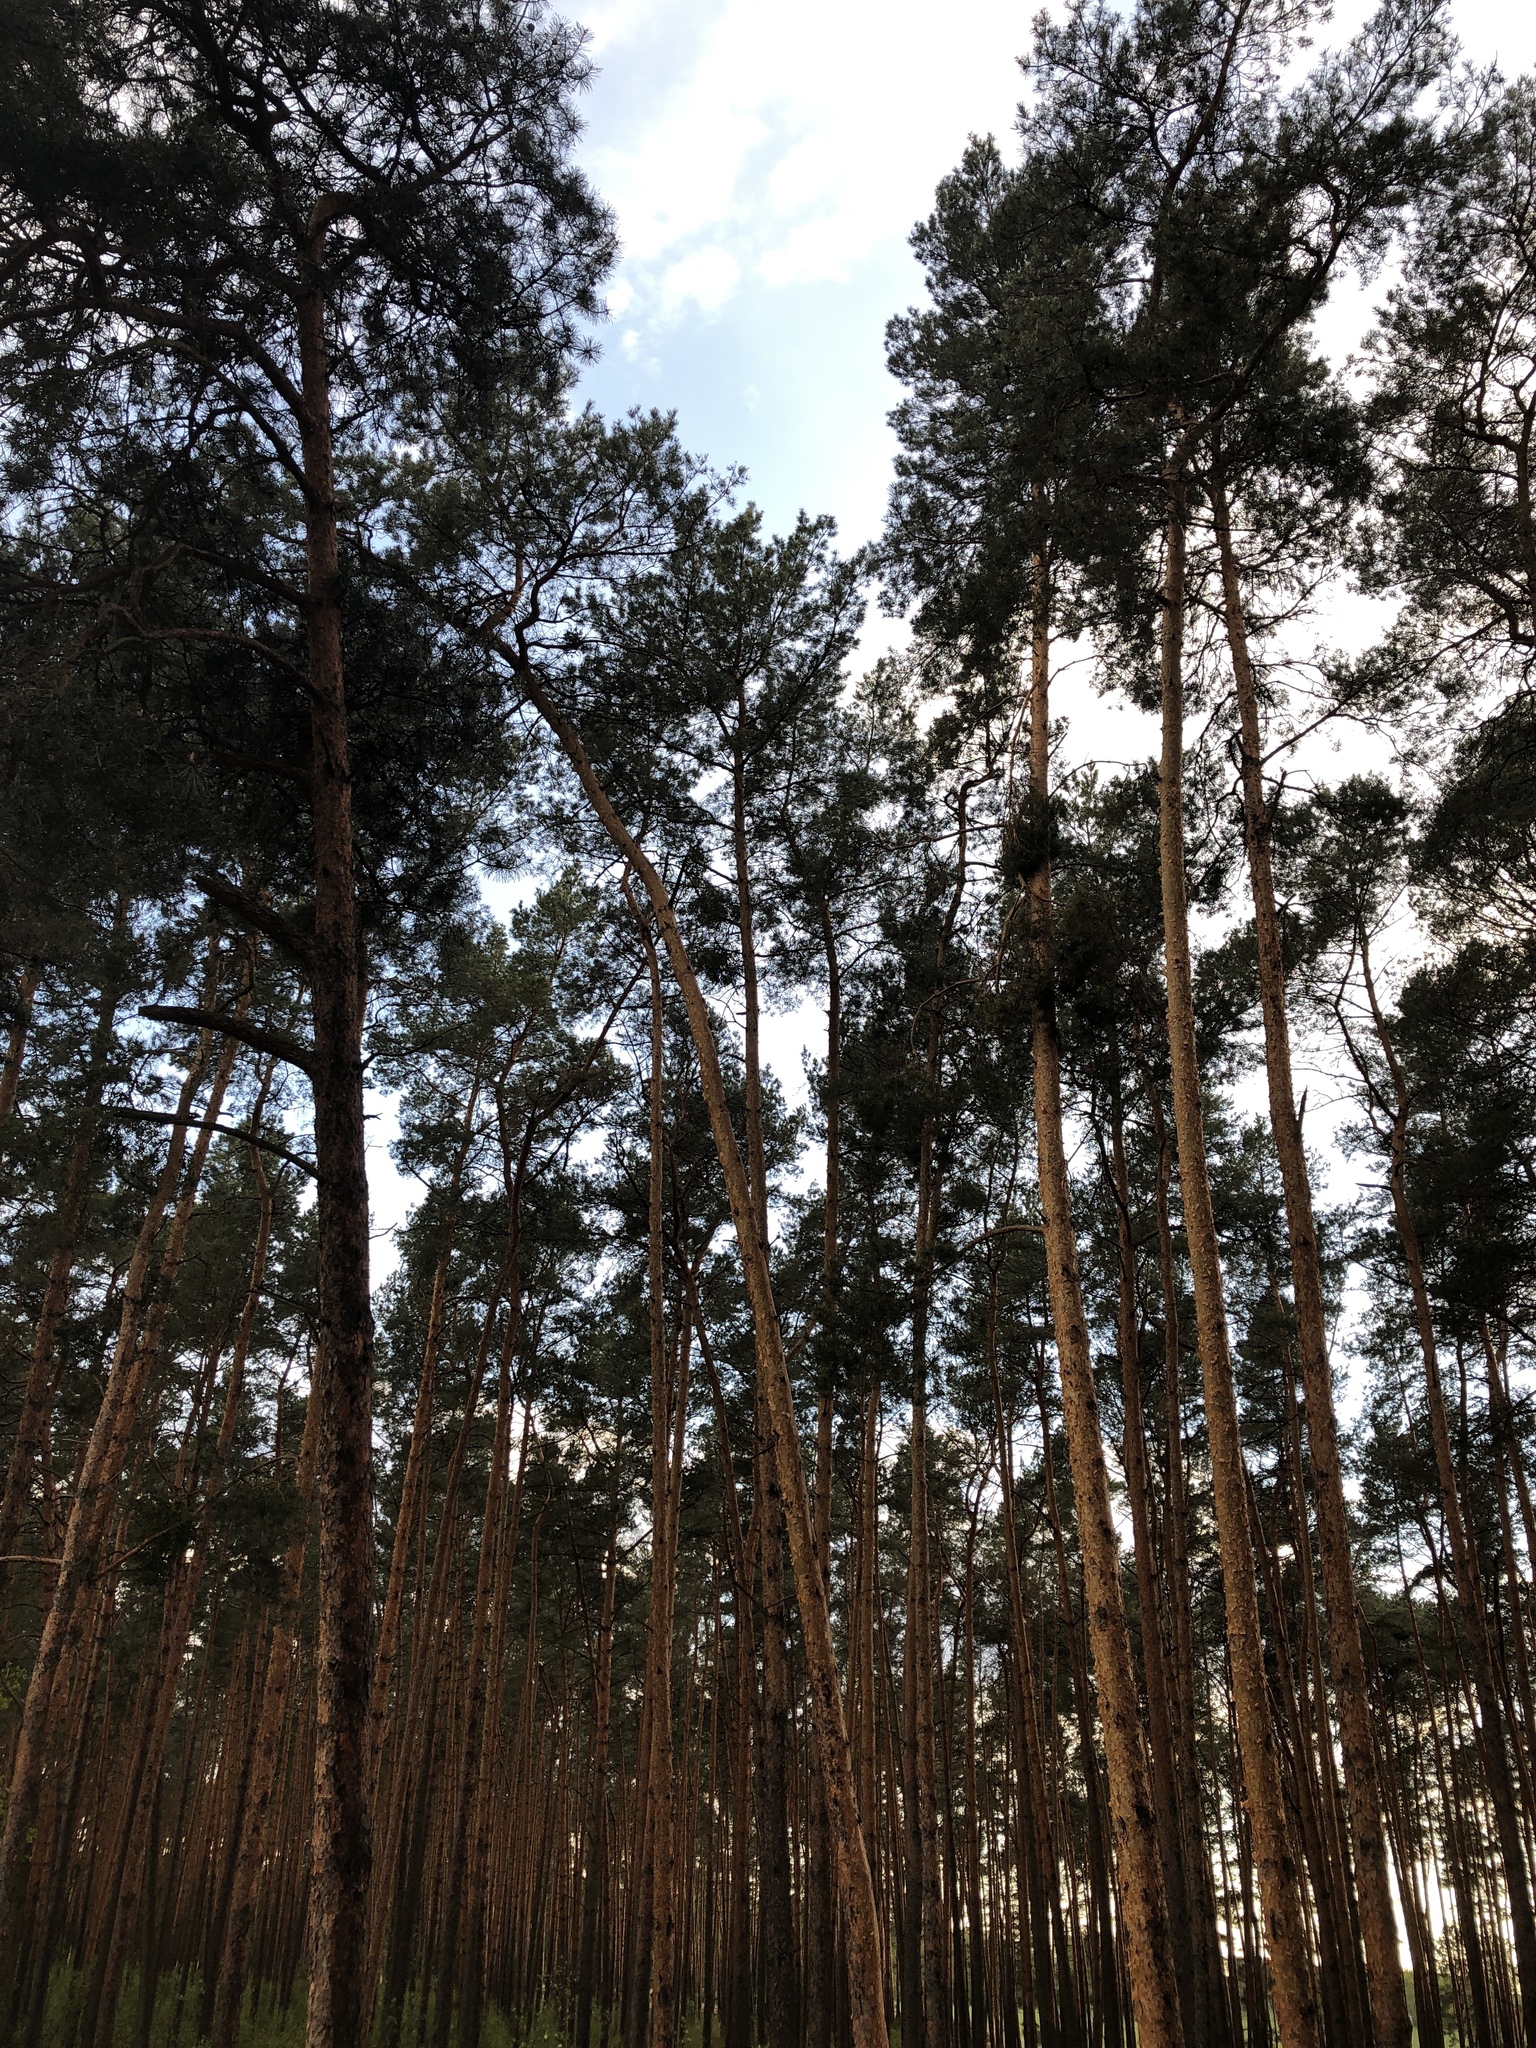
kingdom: Plantae
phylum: Tracheophyta
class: Pinopsida
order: Pinales
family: Pinaceae
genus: Pinus
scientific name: Pinus sylvestris
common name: Scots pine
